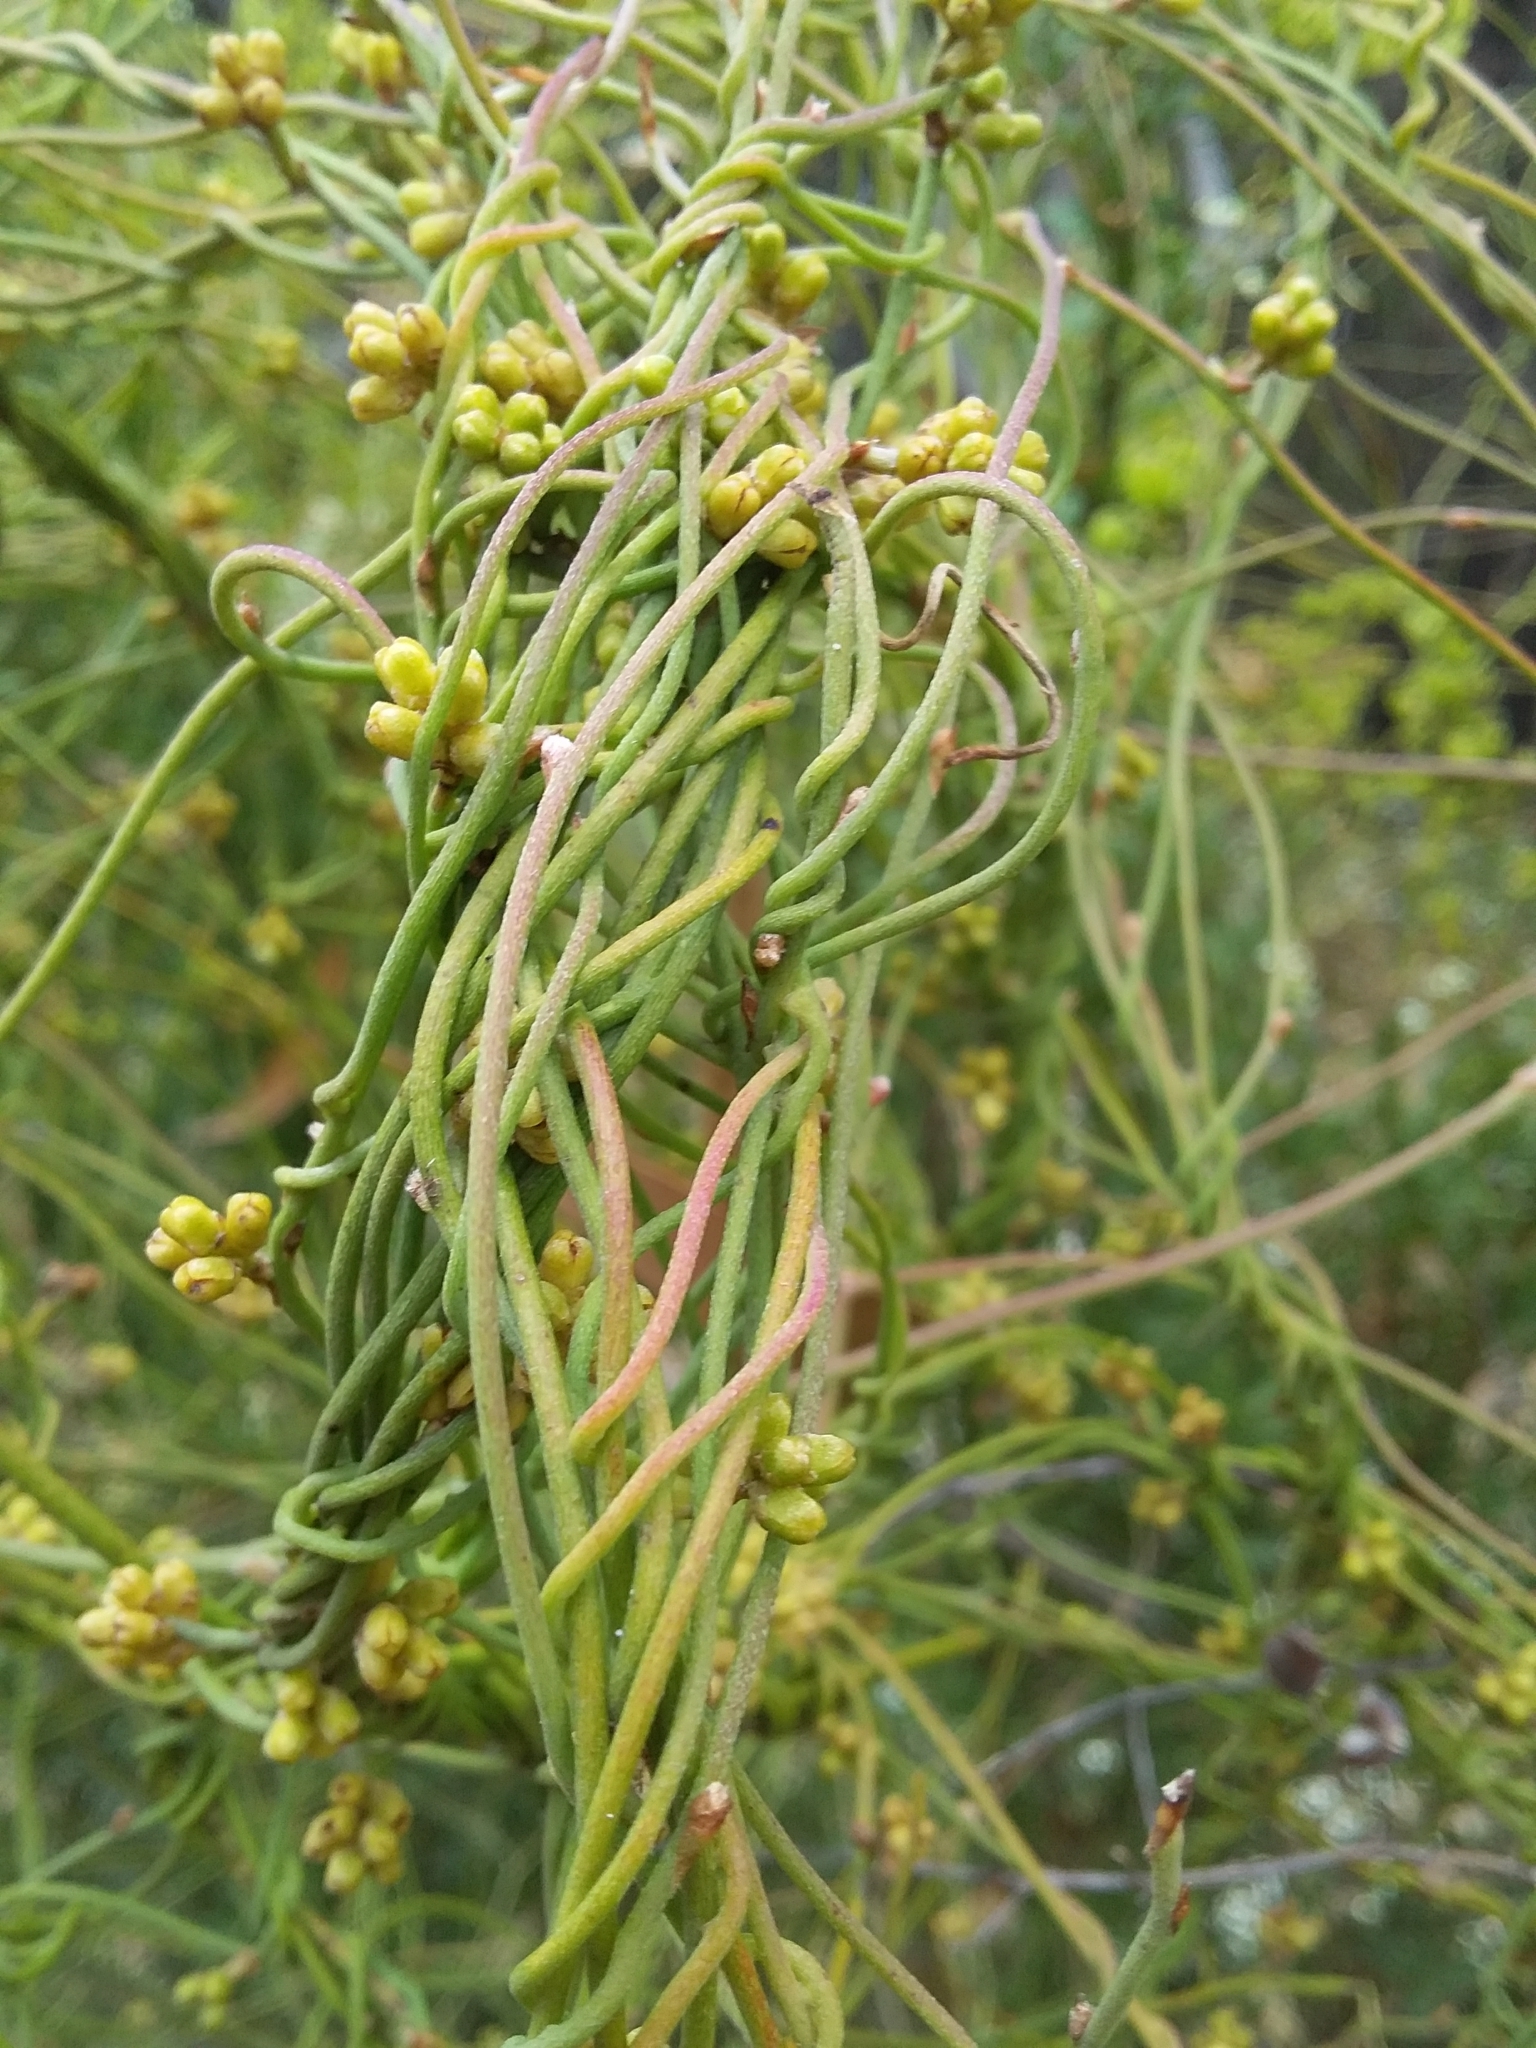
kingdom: Plantae
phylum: Tracheophyta
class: Magnoliopsida
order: Laurales
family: Lauraceae
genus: Cassytha
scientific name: Cassytha pubescens
